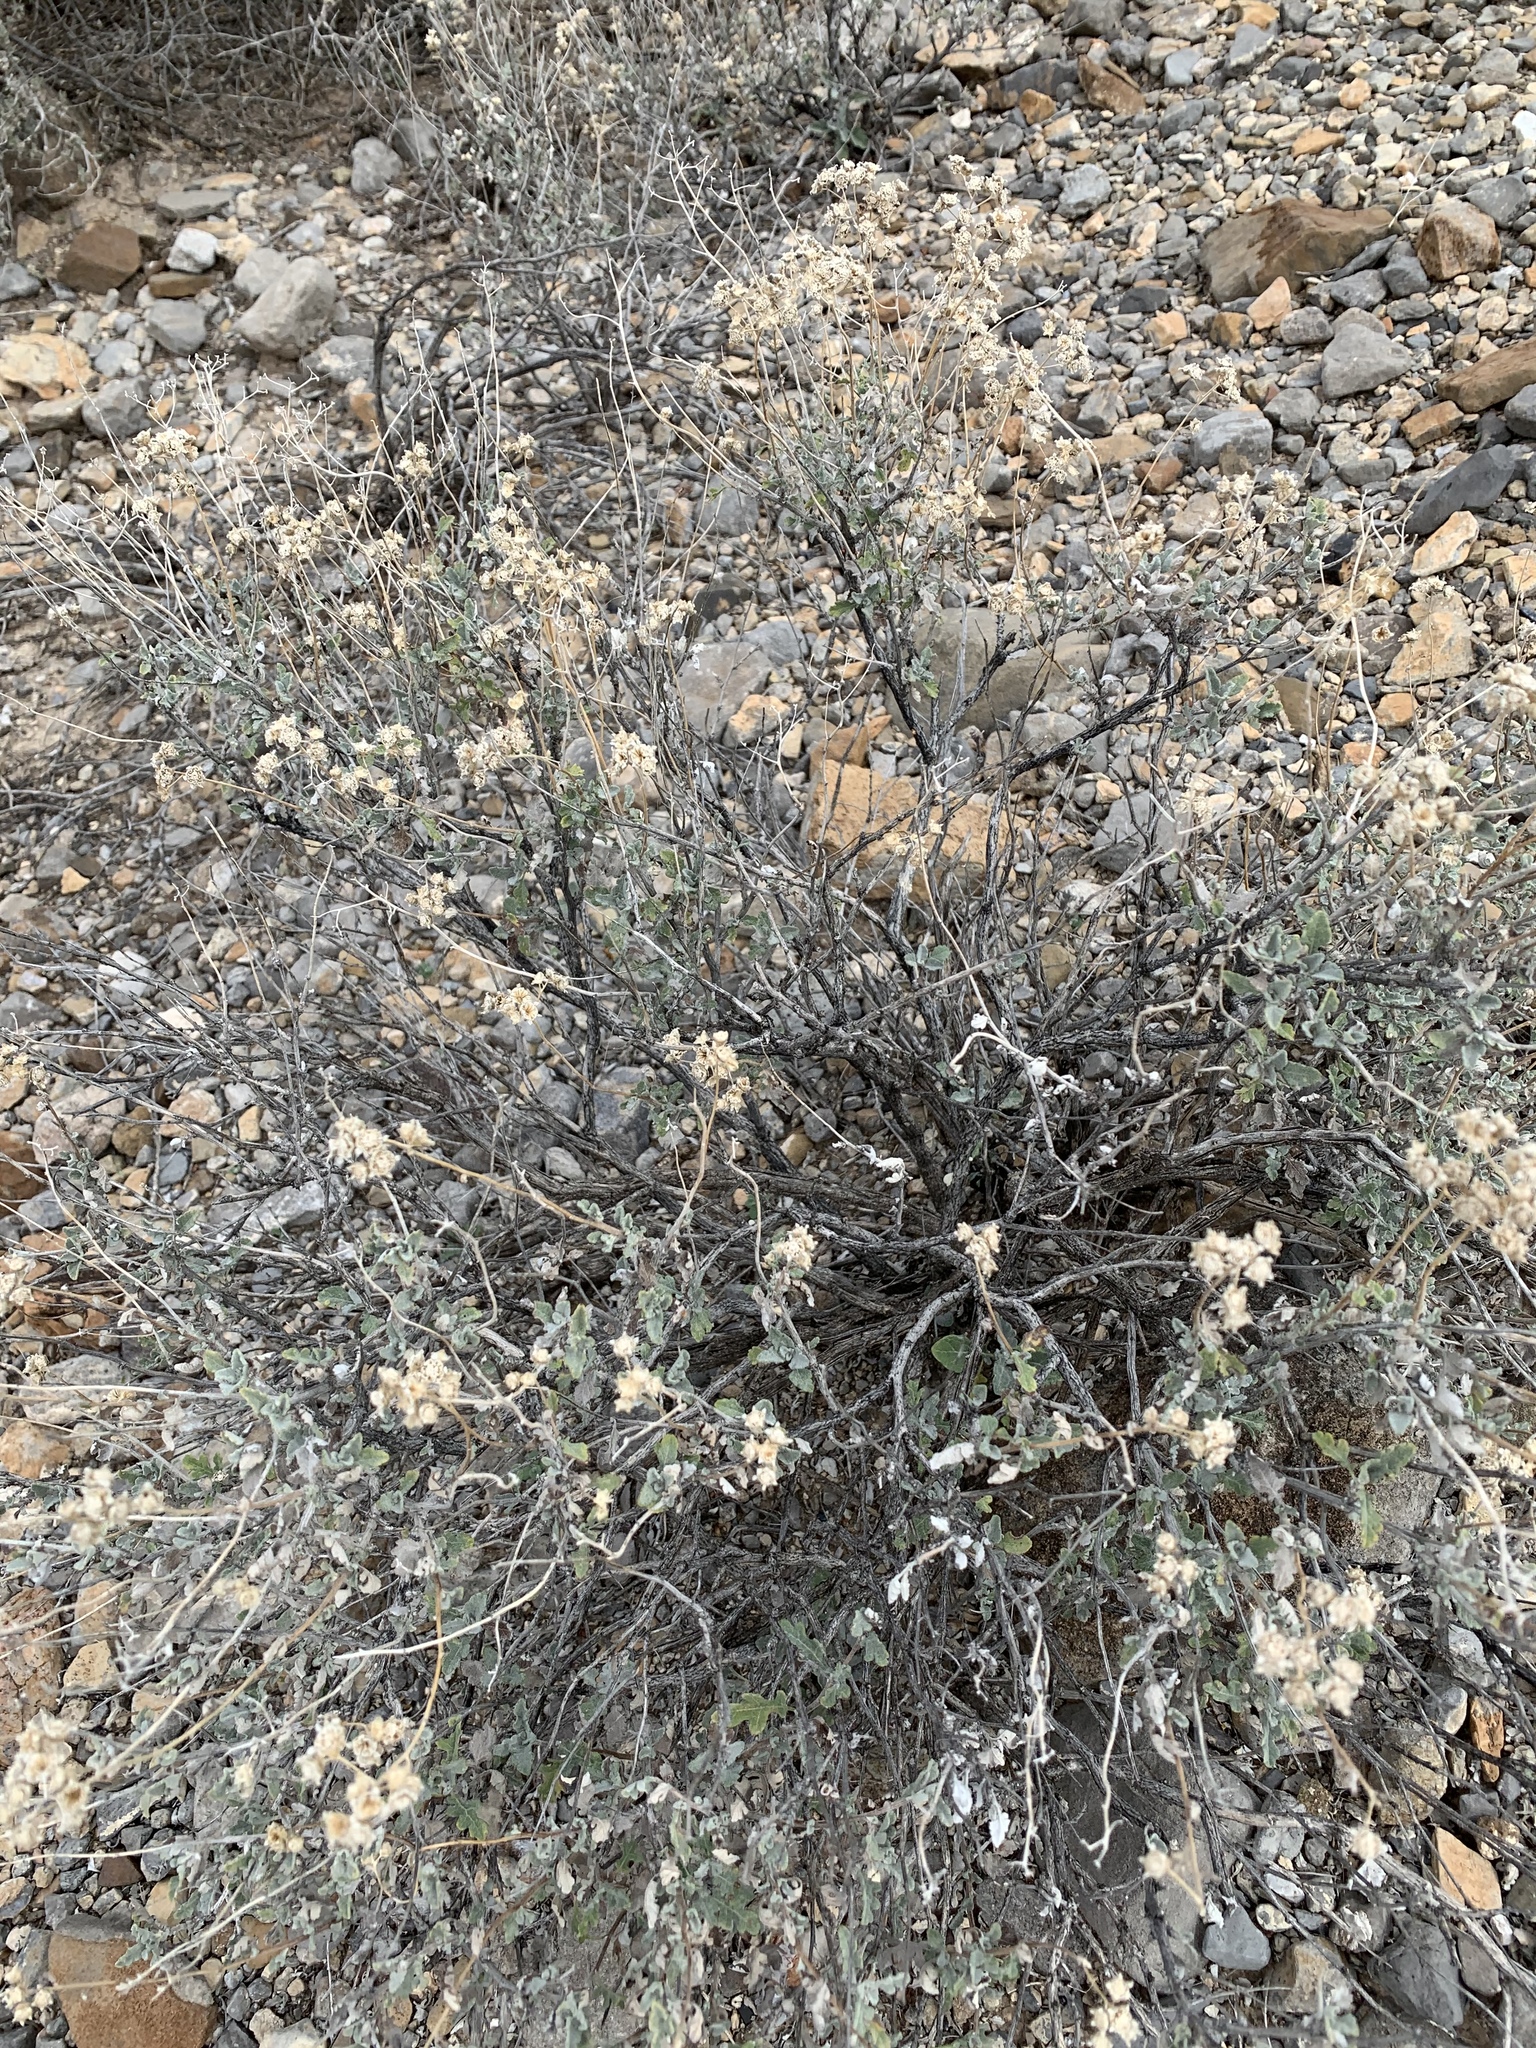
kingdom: Plantae
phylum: Tracheophyta
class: Magnoliopsida
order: Asterales
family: Asteraceae
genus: Parthenium
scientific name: Parthenium incanum
